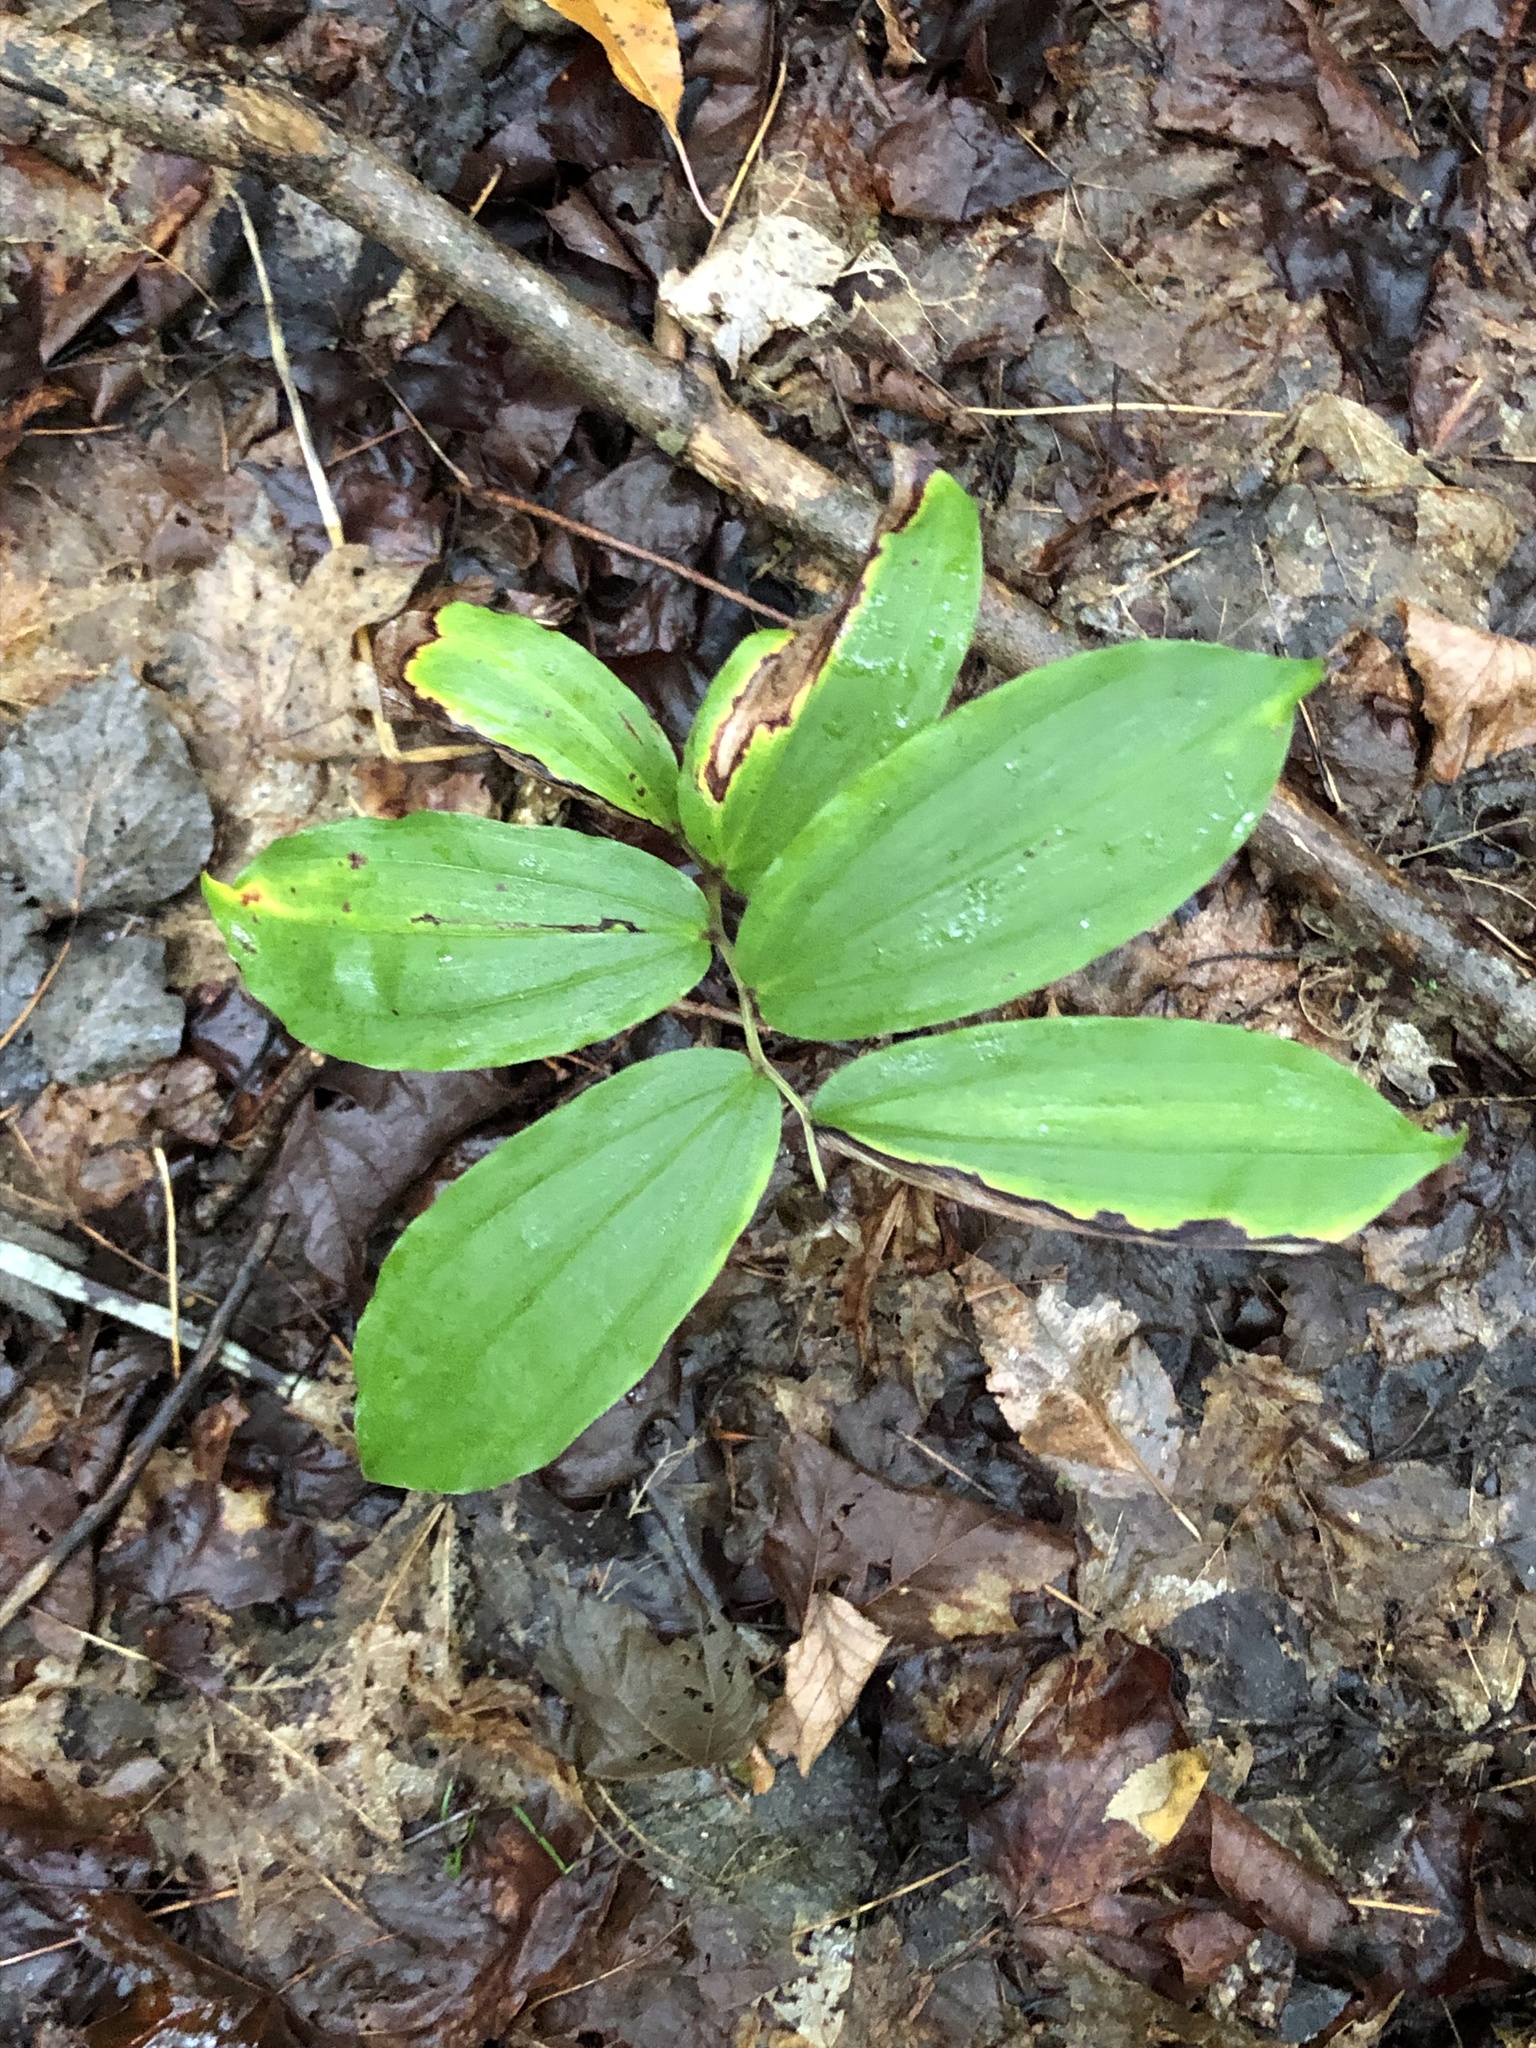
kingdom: Plantae
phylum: Tracheophyta
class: Liliopsida
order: Asparagales
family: Asparagaceae
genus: Maianthemum
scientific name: Maianthemum racemosum
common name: False spikenard
